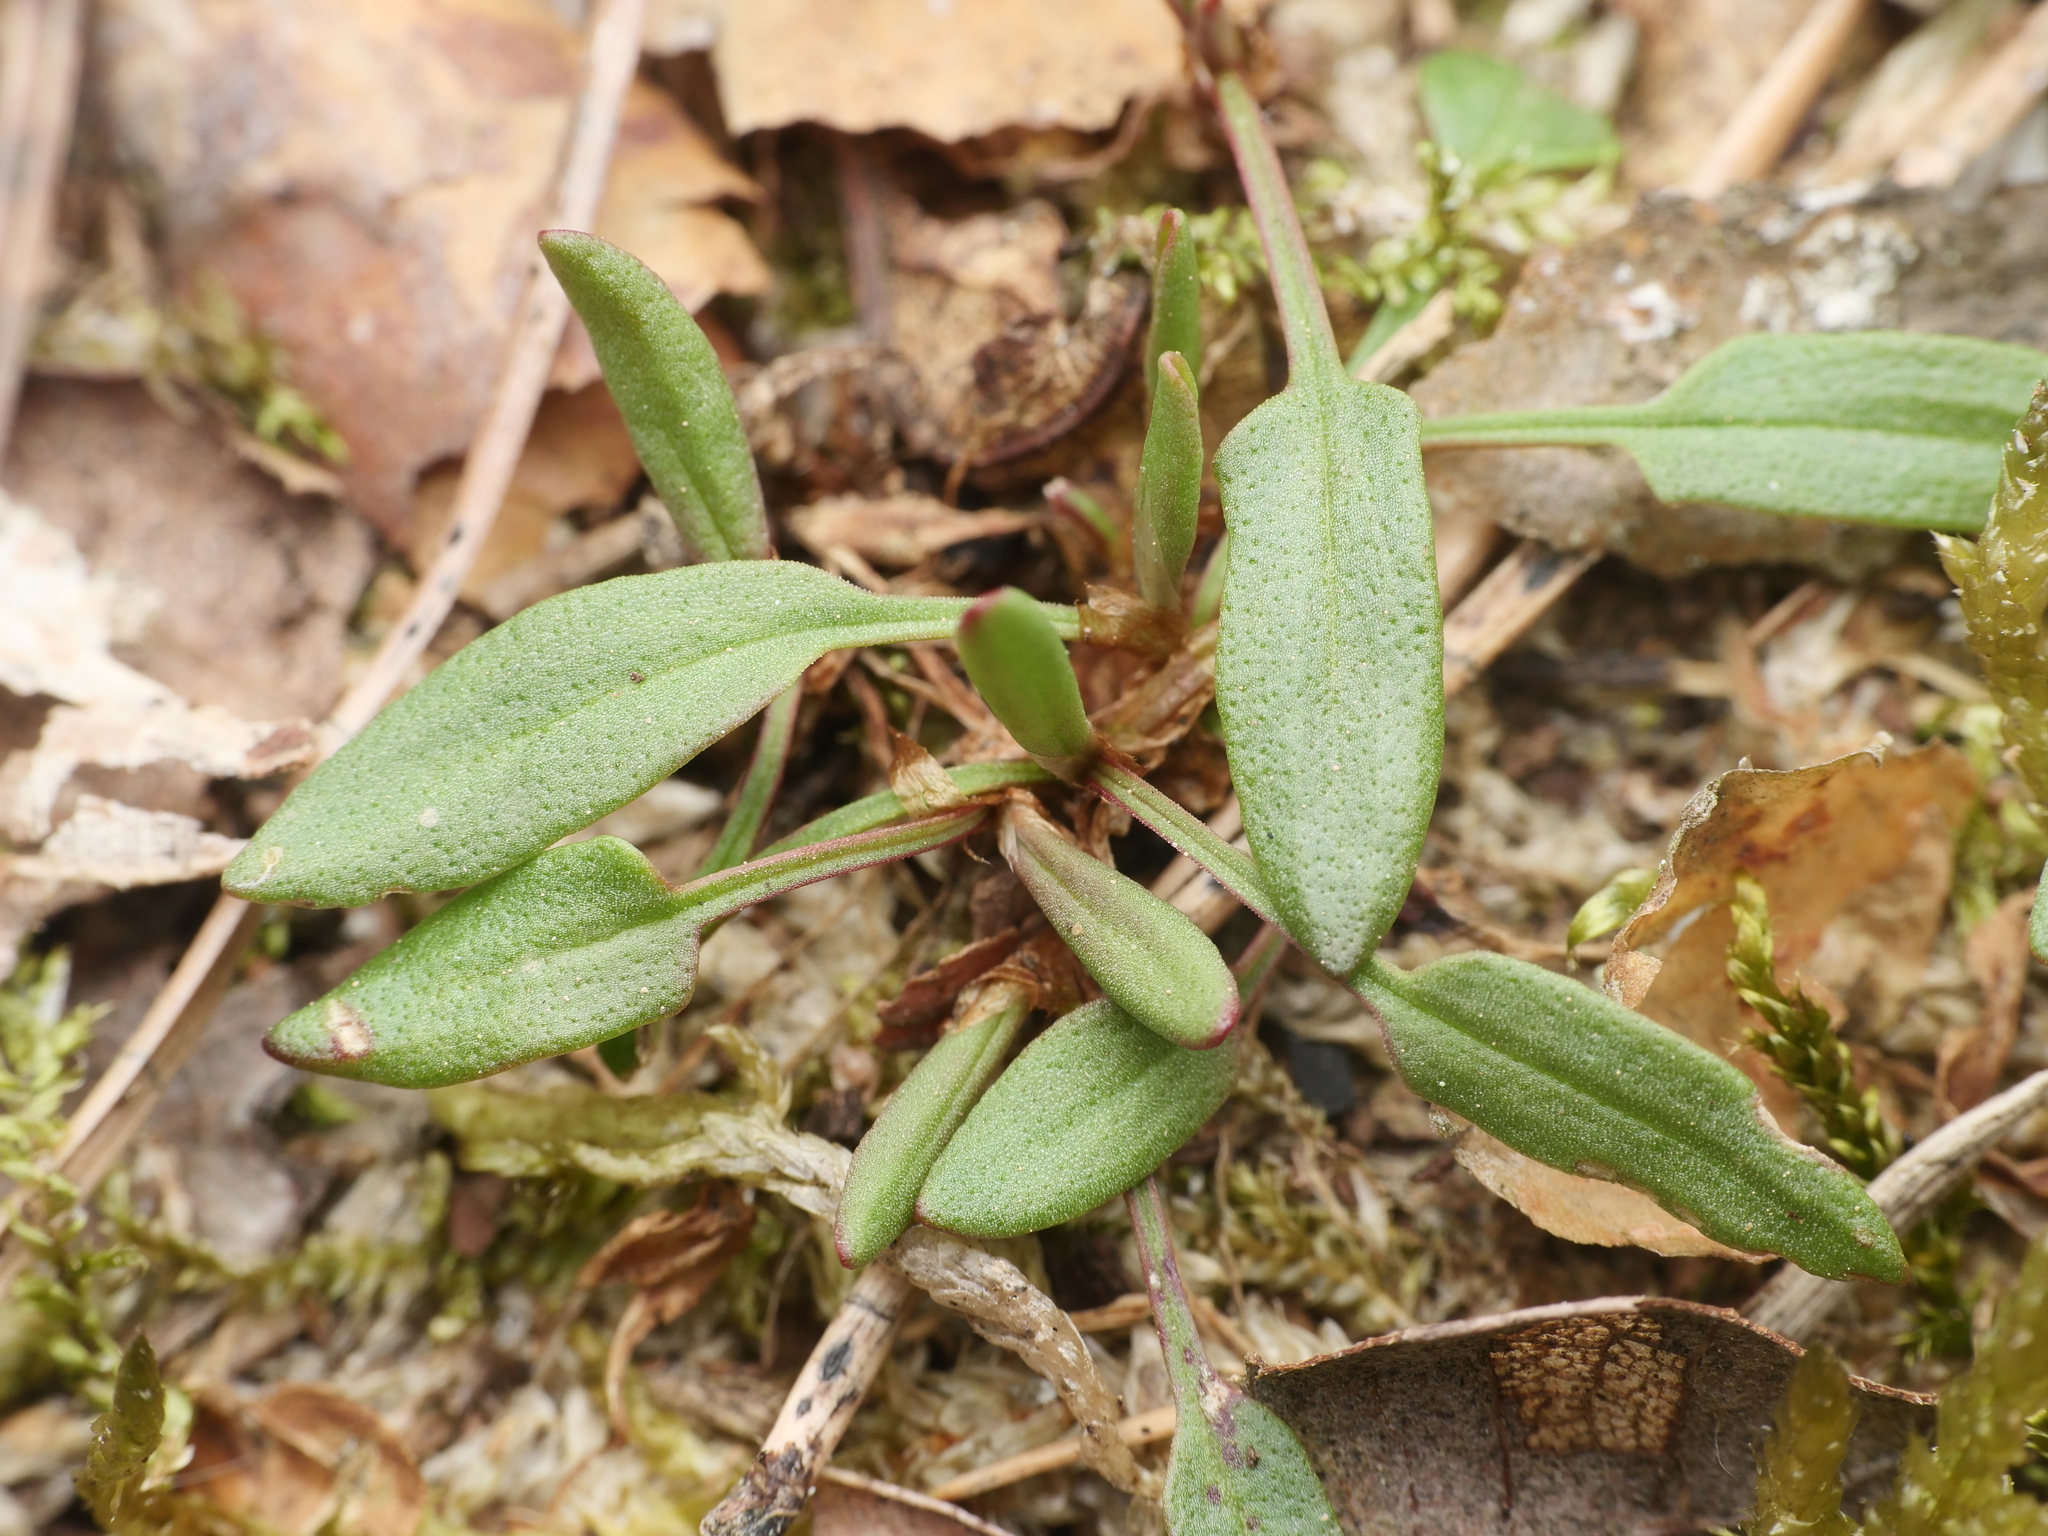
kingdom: Plantae
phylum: Tracheophyta
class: Magnoliopsida
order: Caryophyllales
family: Polygonaceae
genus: Rumex
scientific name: Rumex acetosella
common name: Common sheep sorrel
